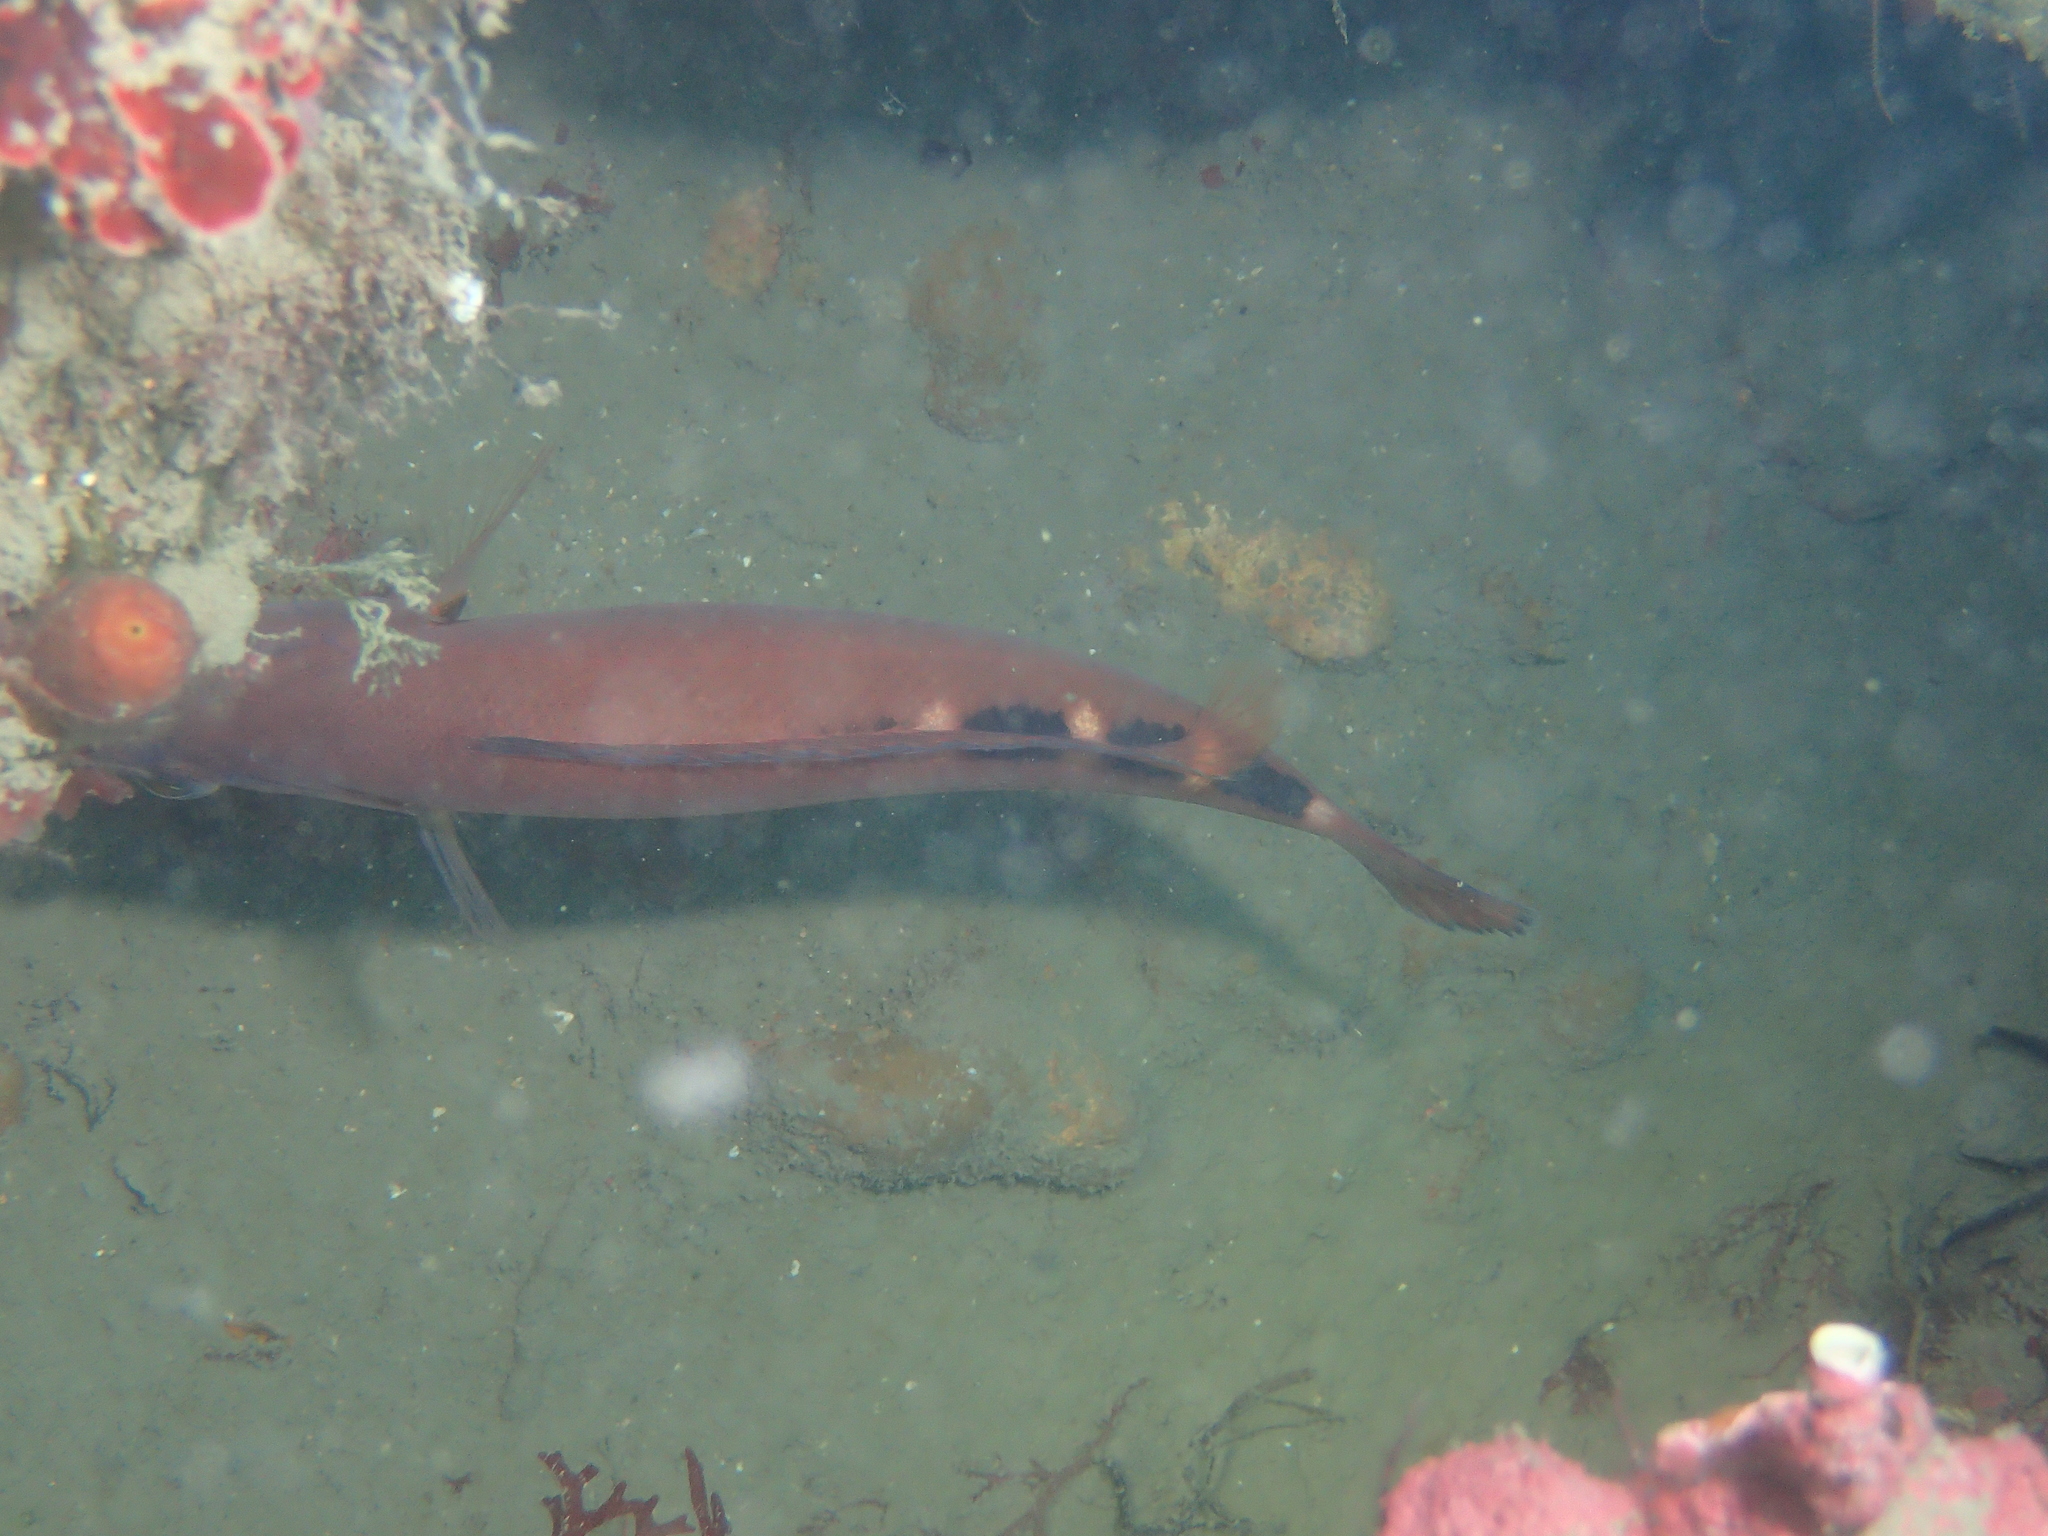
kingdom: Animalia
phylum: Chordata
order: Perciformes
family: Labridae
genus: Labrus
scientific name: Labrus mixtus
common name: Cuckoo wrasse
